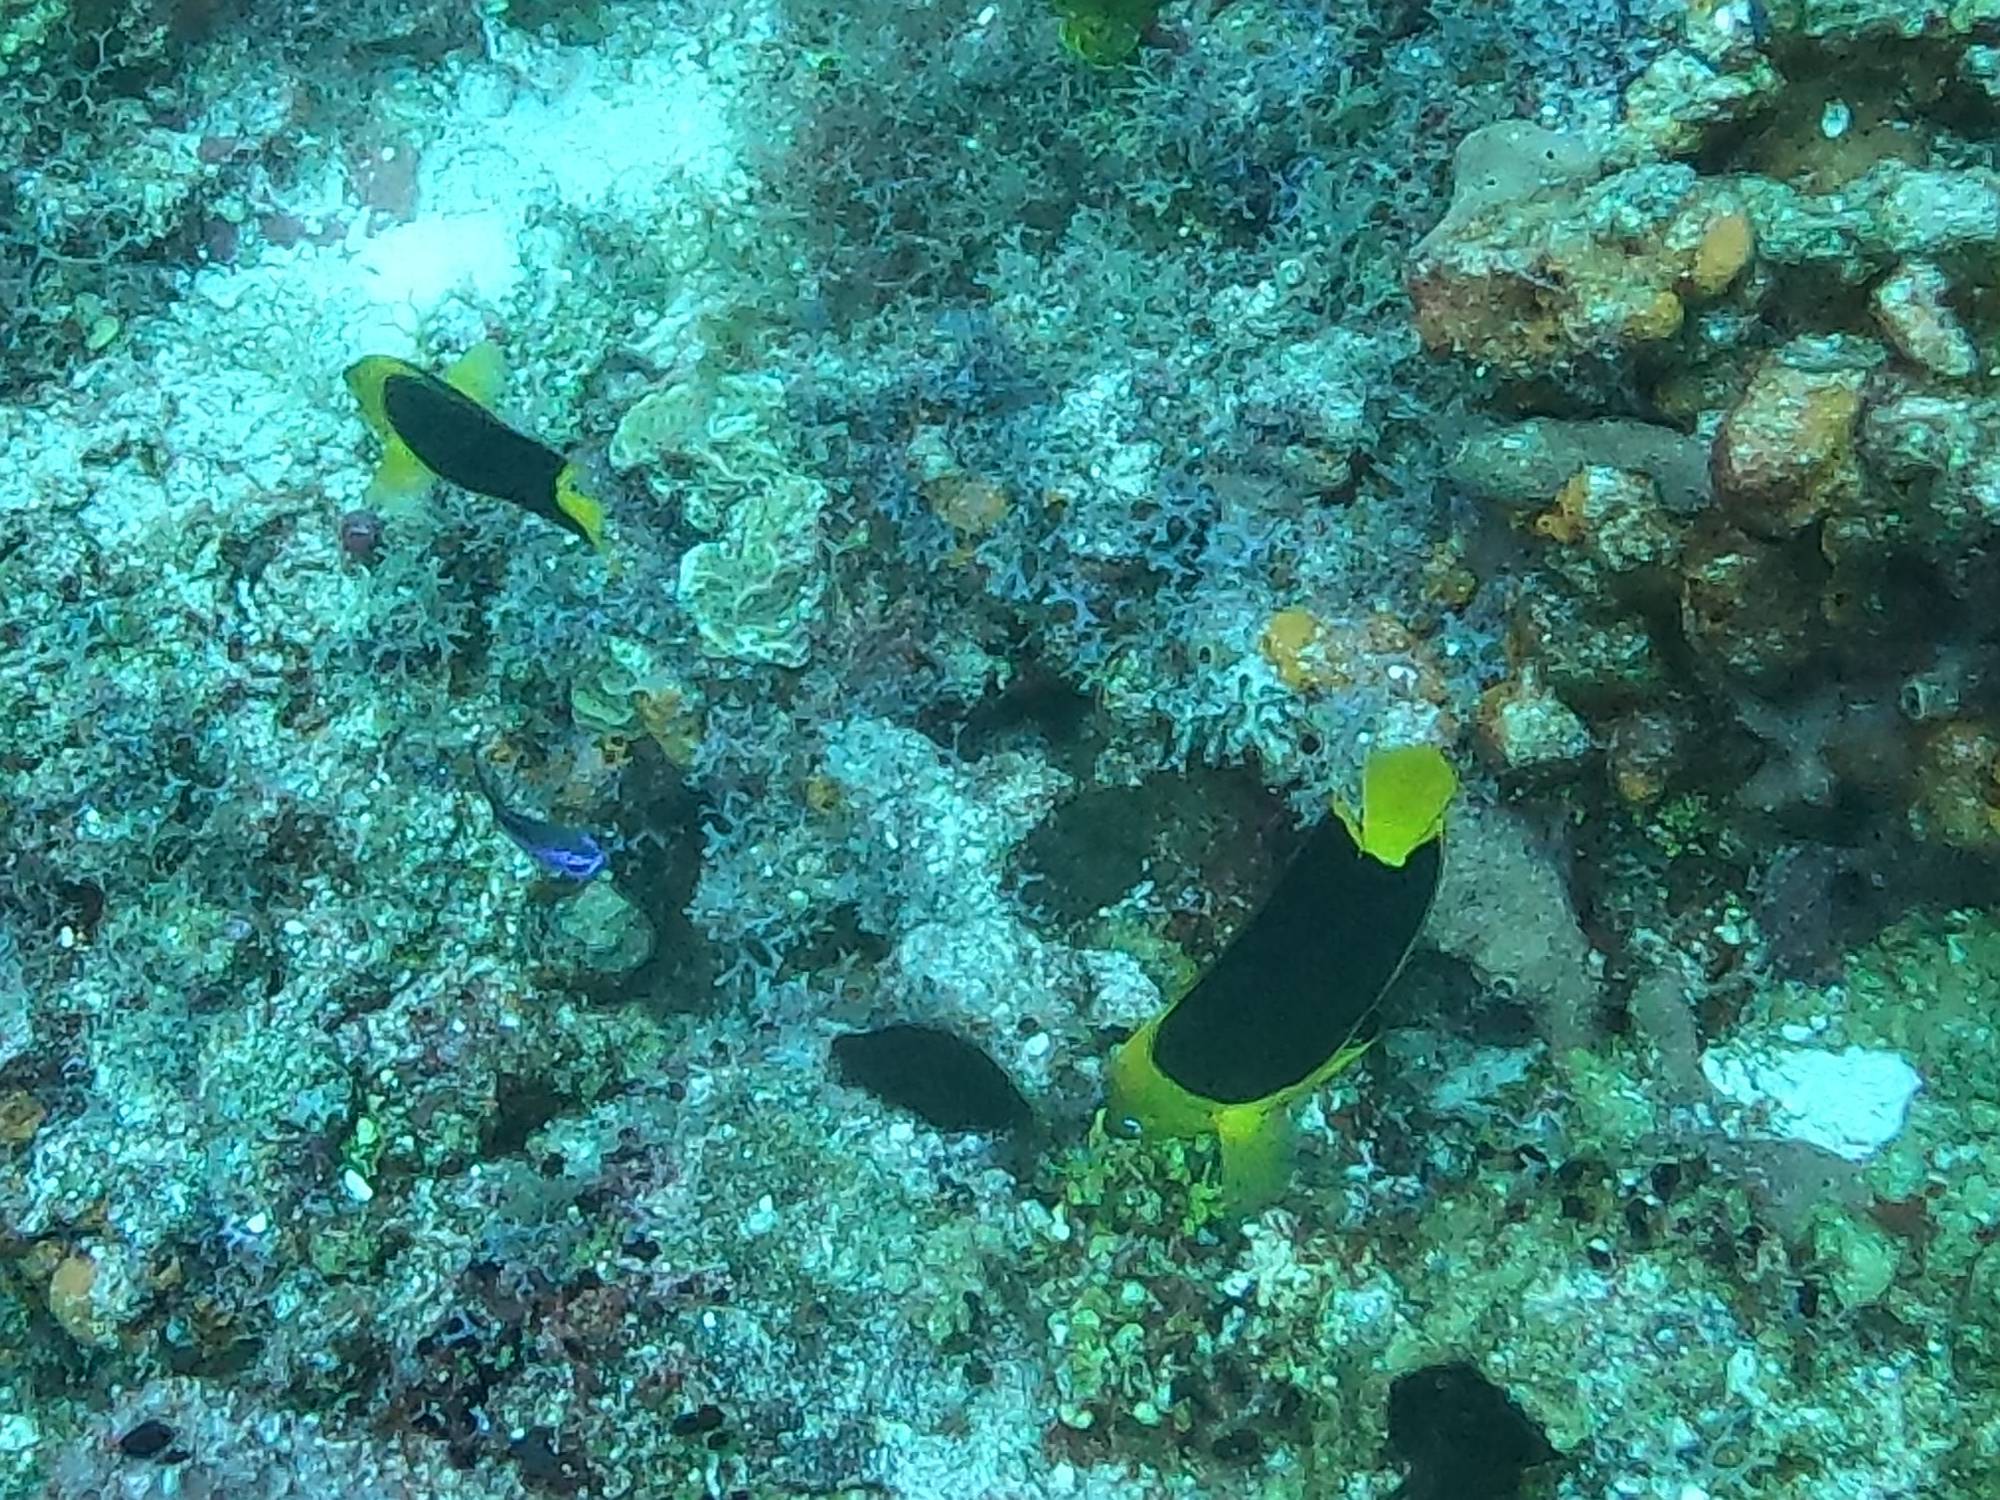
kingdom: Animalia
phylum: Chordata
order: Perciformes
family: Pomacanthidae
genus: Holacanthus
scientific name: Holacanthus tricolor
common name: Rock beauty
